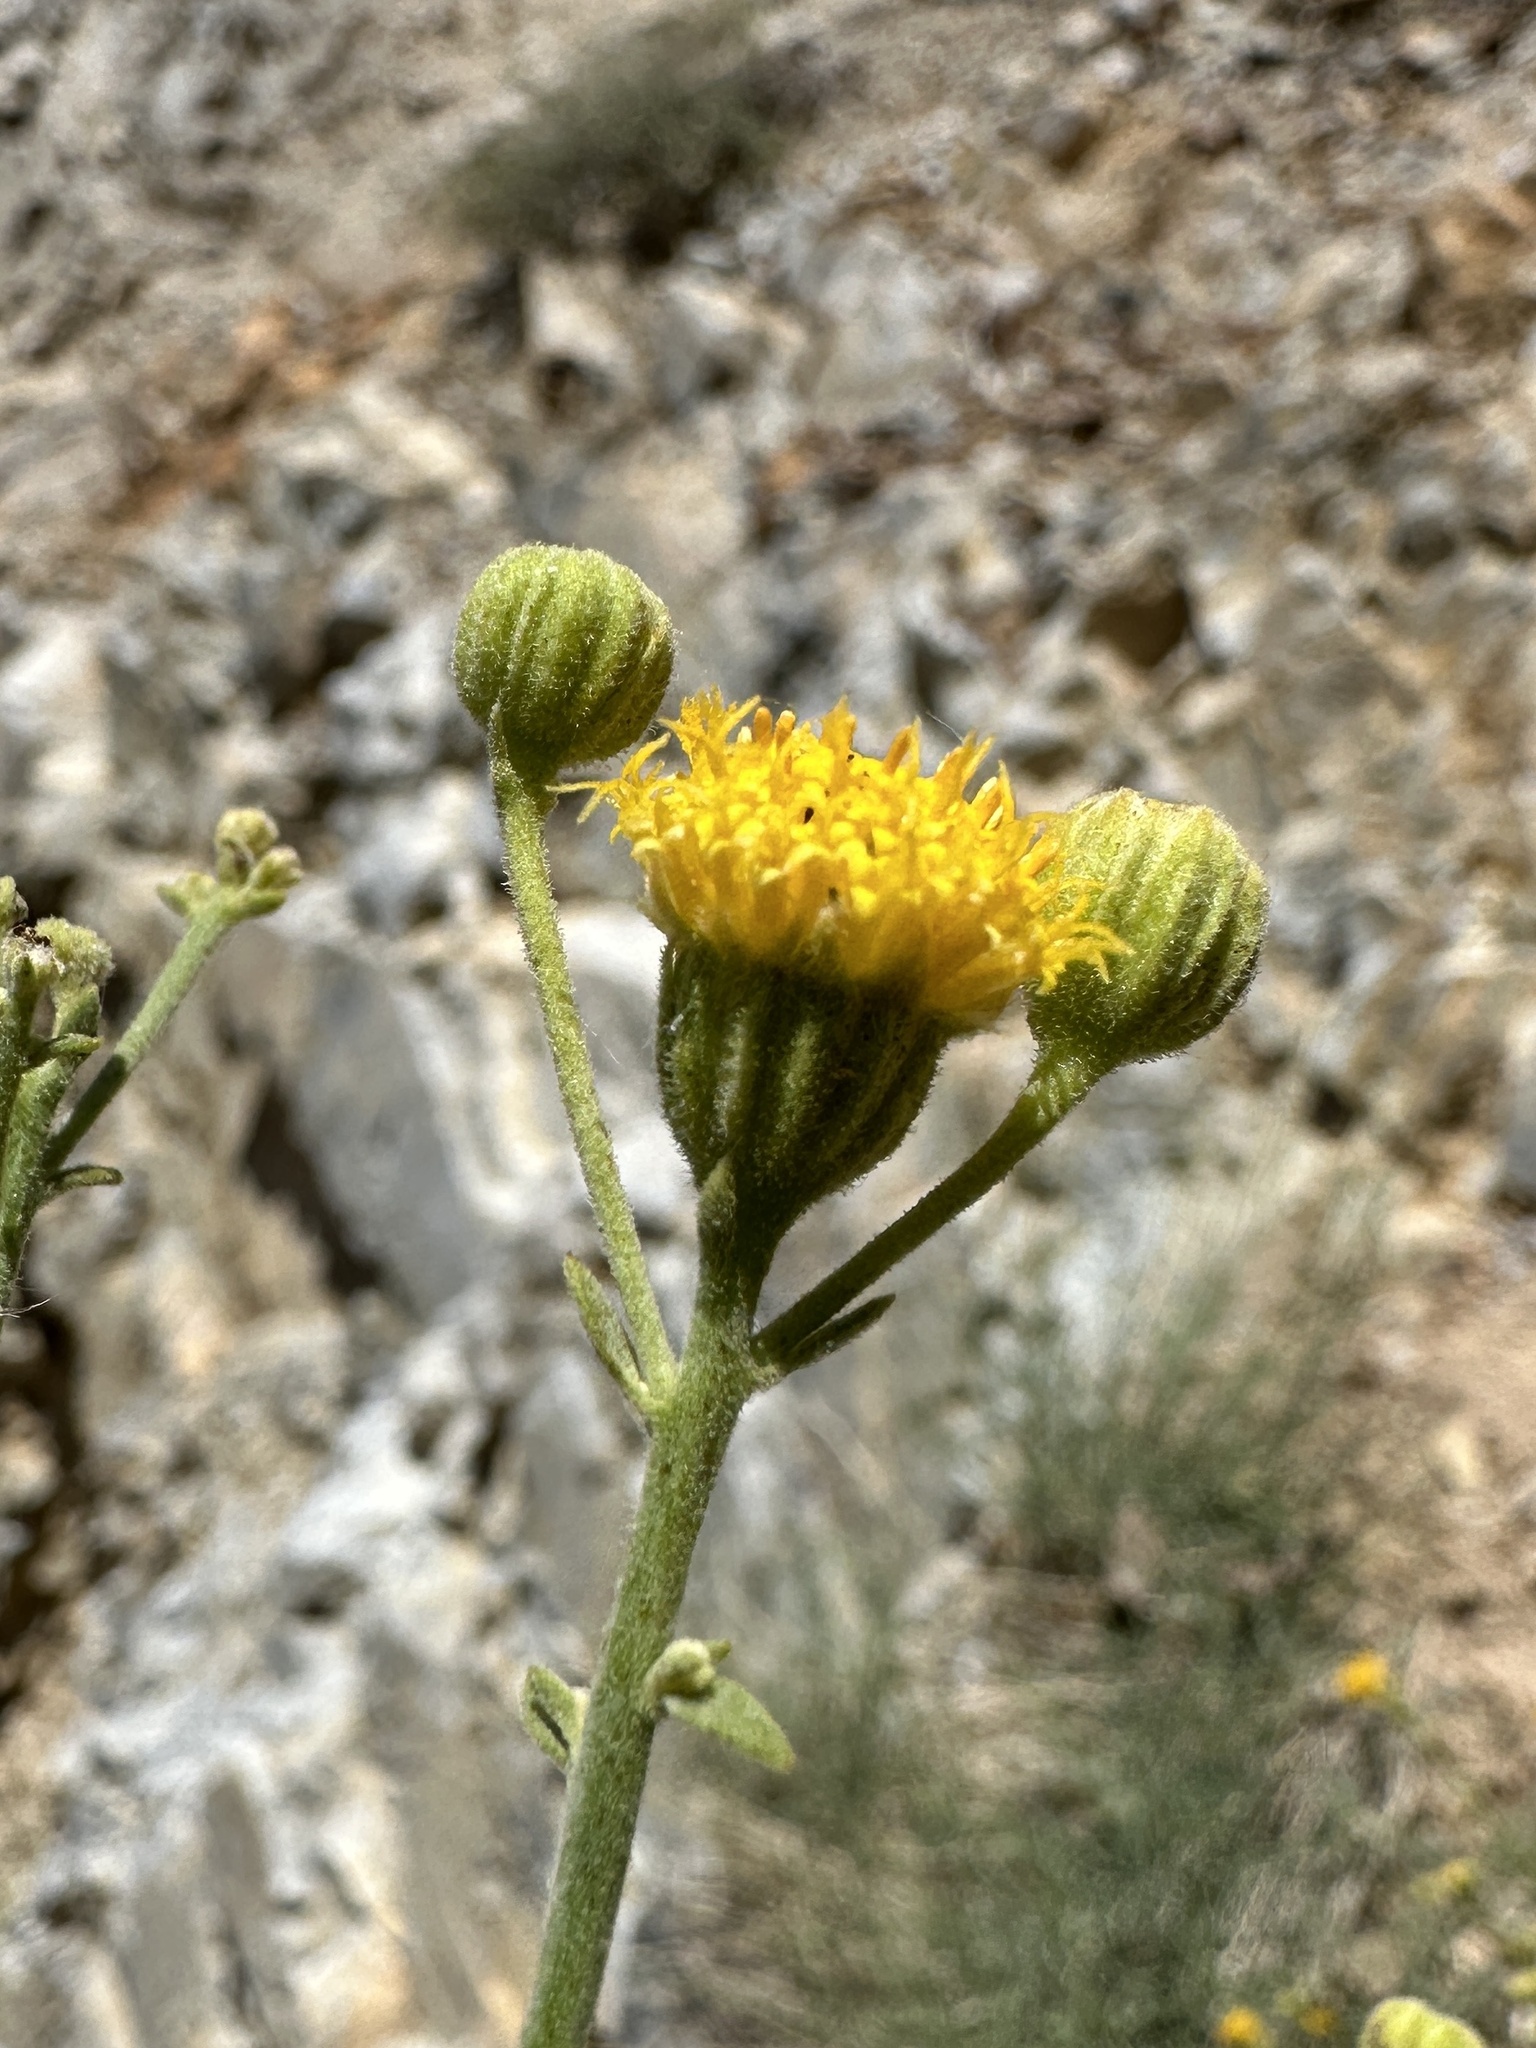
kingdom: Plantae
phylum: Tracheophyta
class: Magnoliopsida
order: Asterales
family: Asteraceae
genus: Laphamia
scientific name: Laphamia megalocephala
